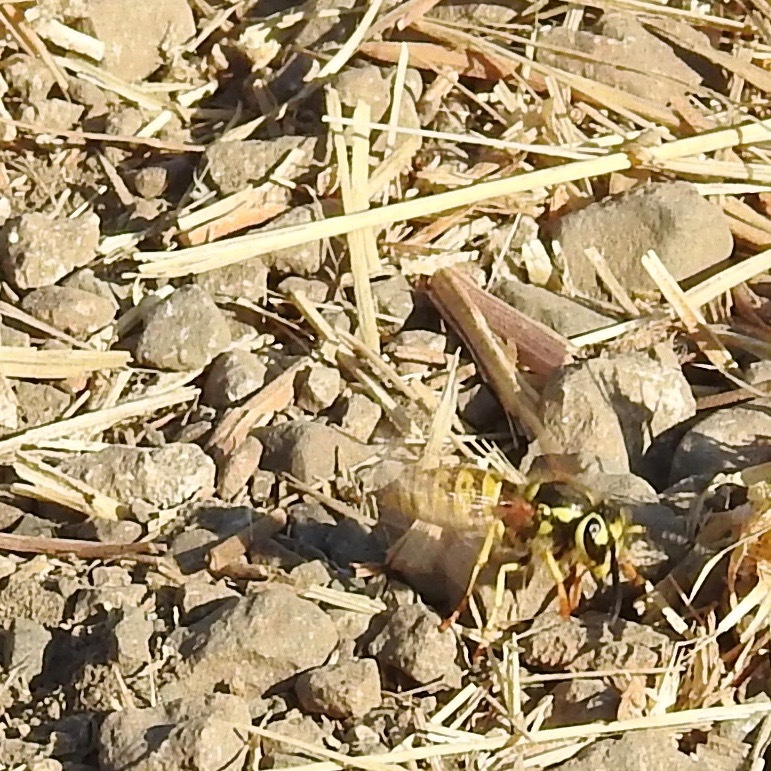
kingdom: Animalia
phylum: Arthropoda
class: Insecta
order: Hymenoptera
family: Vespidae
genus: Vespula
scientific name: Vespula pensylvanica
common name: Western yellowjacket
